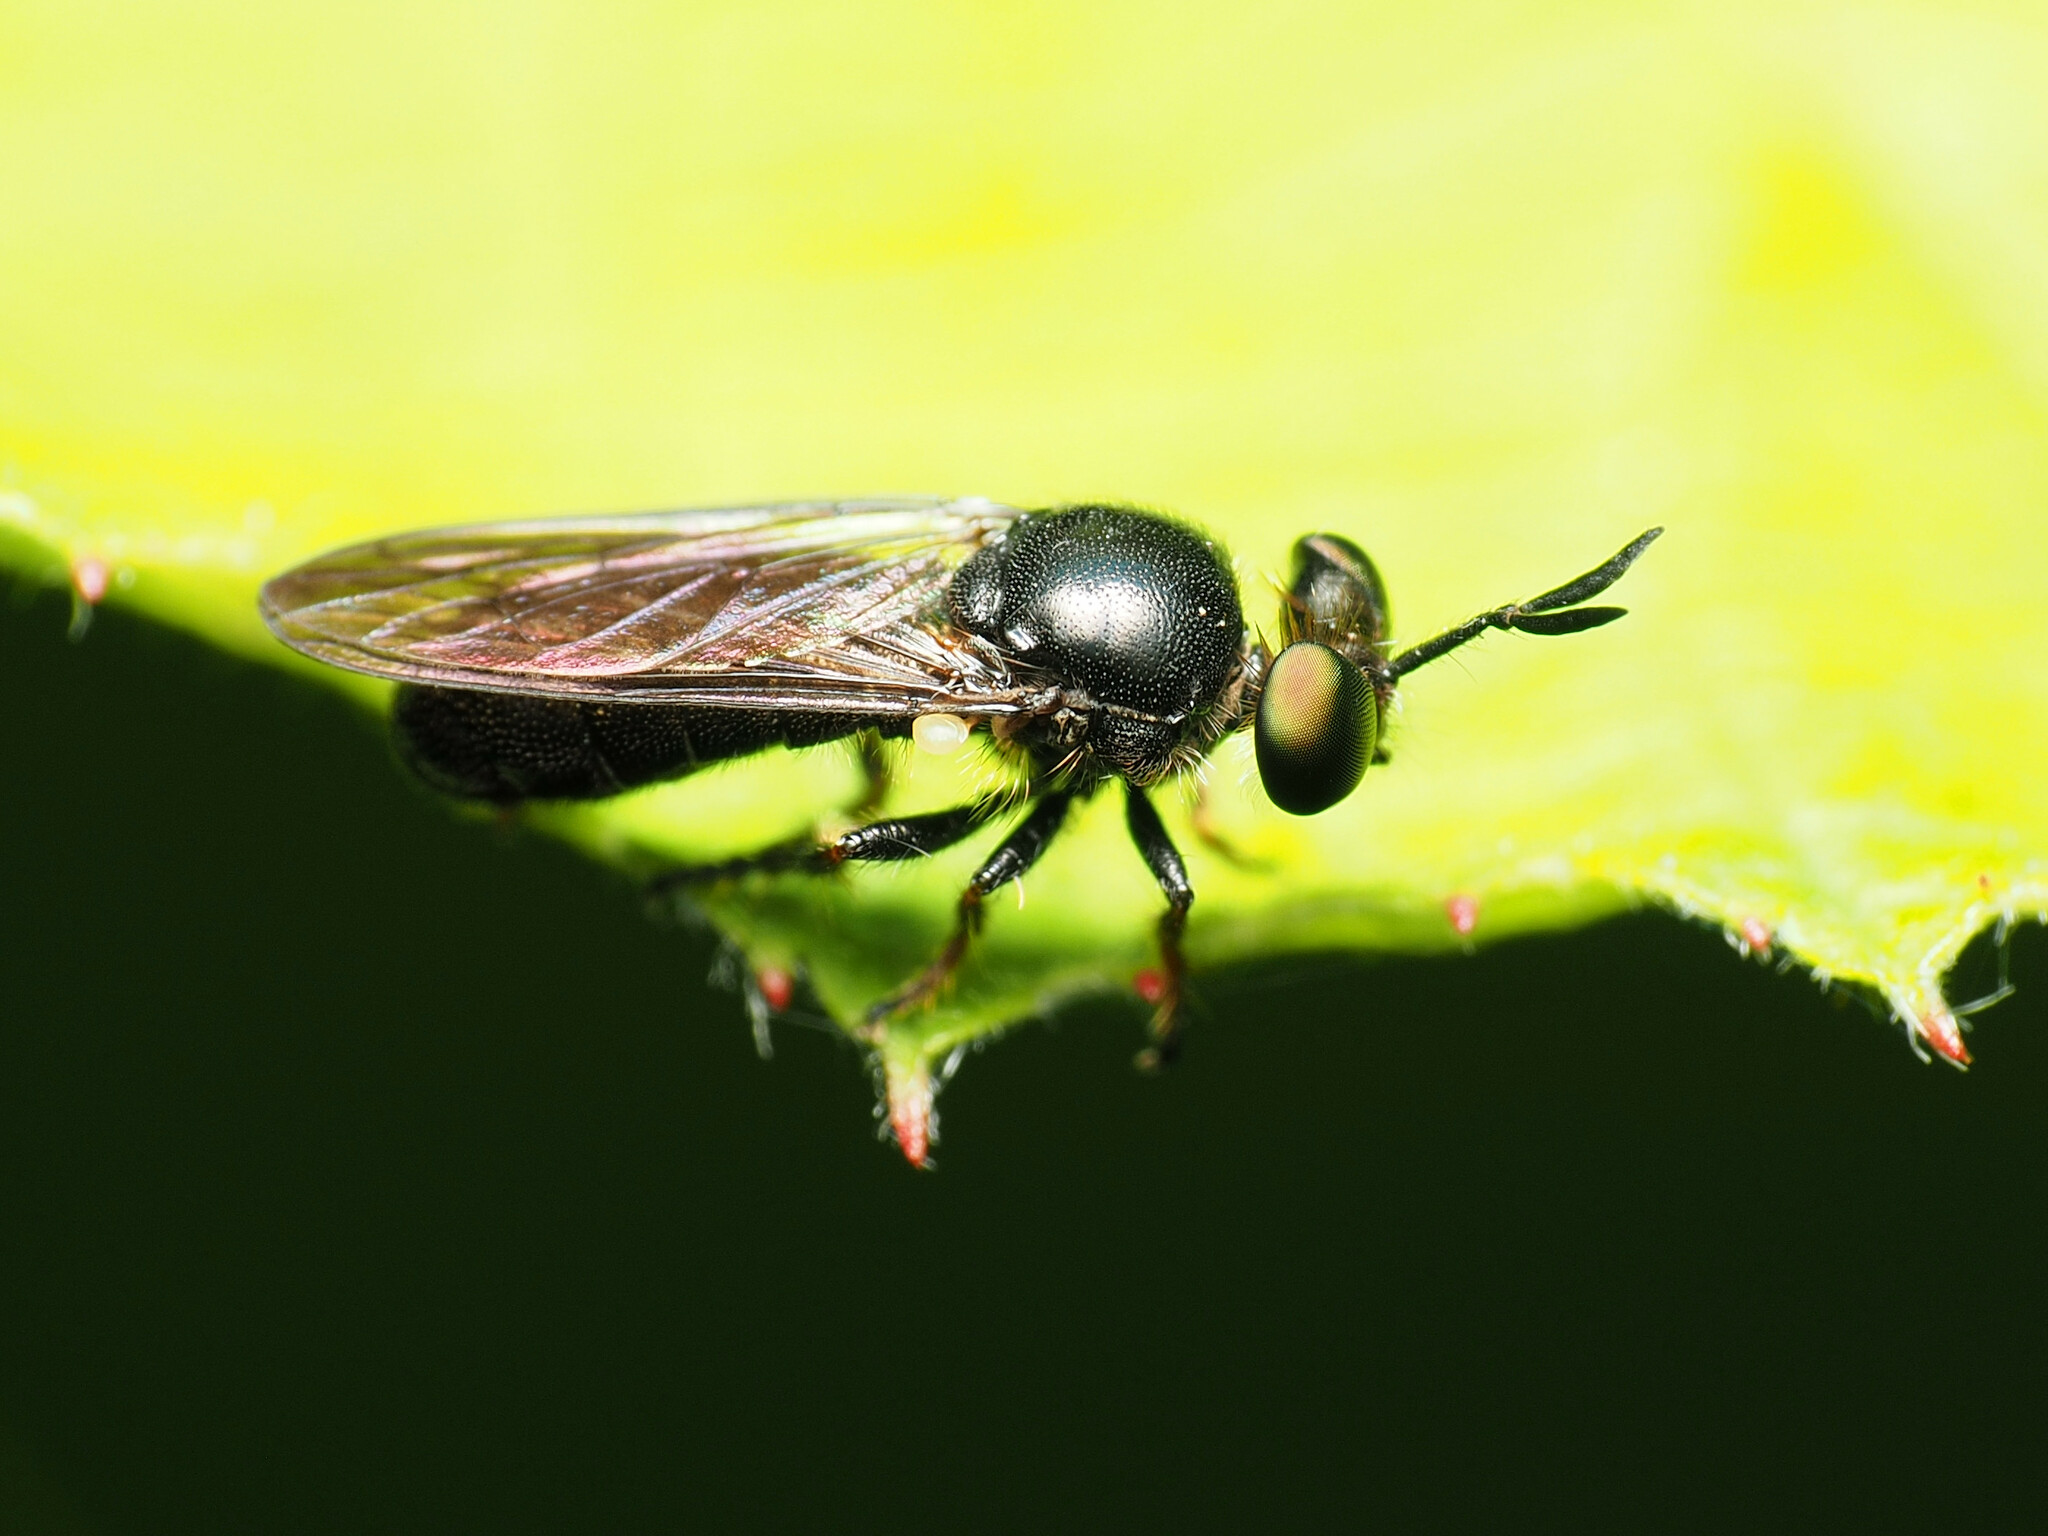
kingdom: Animalia
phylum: Arthropoda
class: Insecta
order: Diptera
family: Asilidae
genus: Cerotainia
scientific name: Cerotainia macrocera
